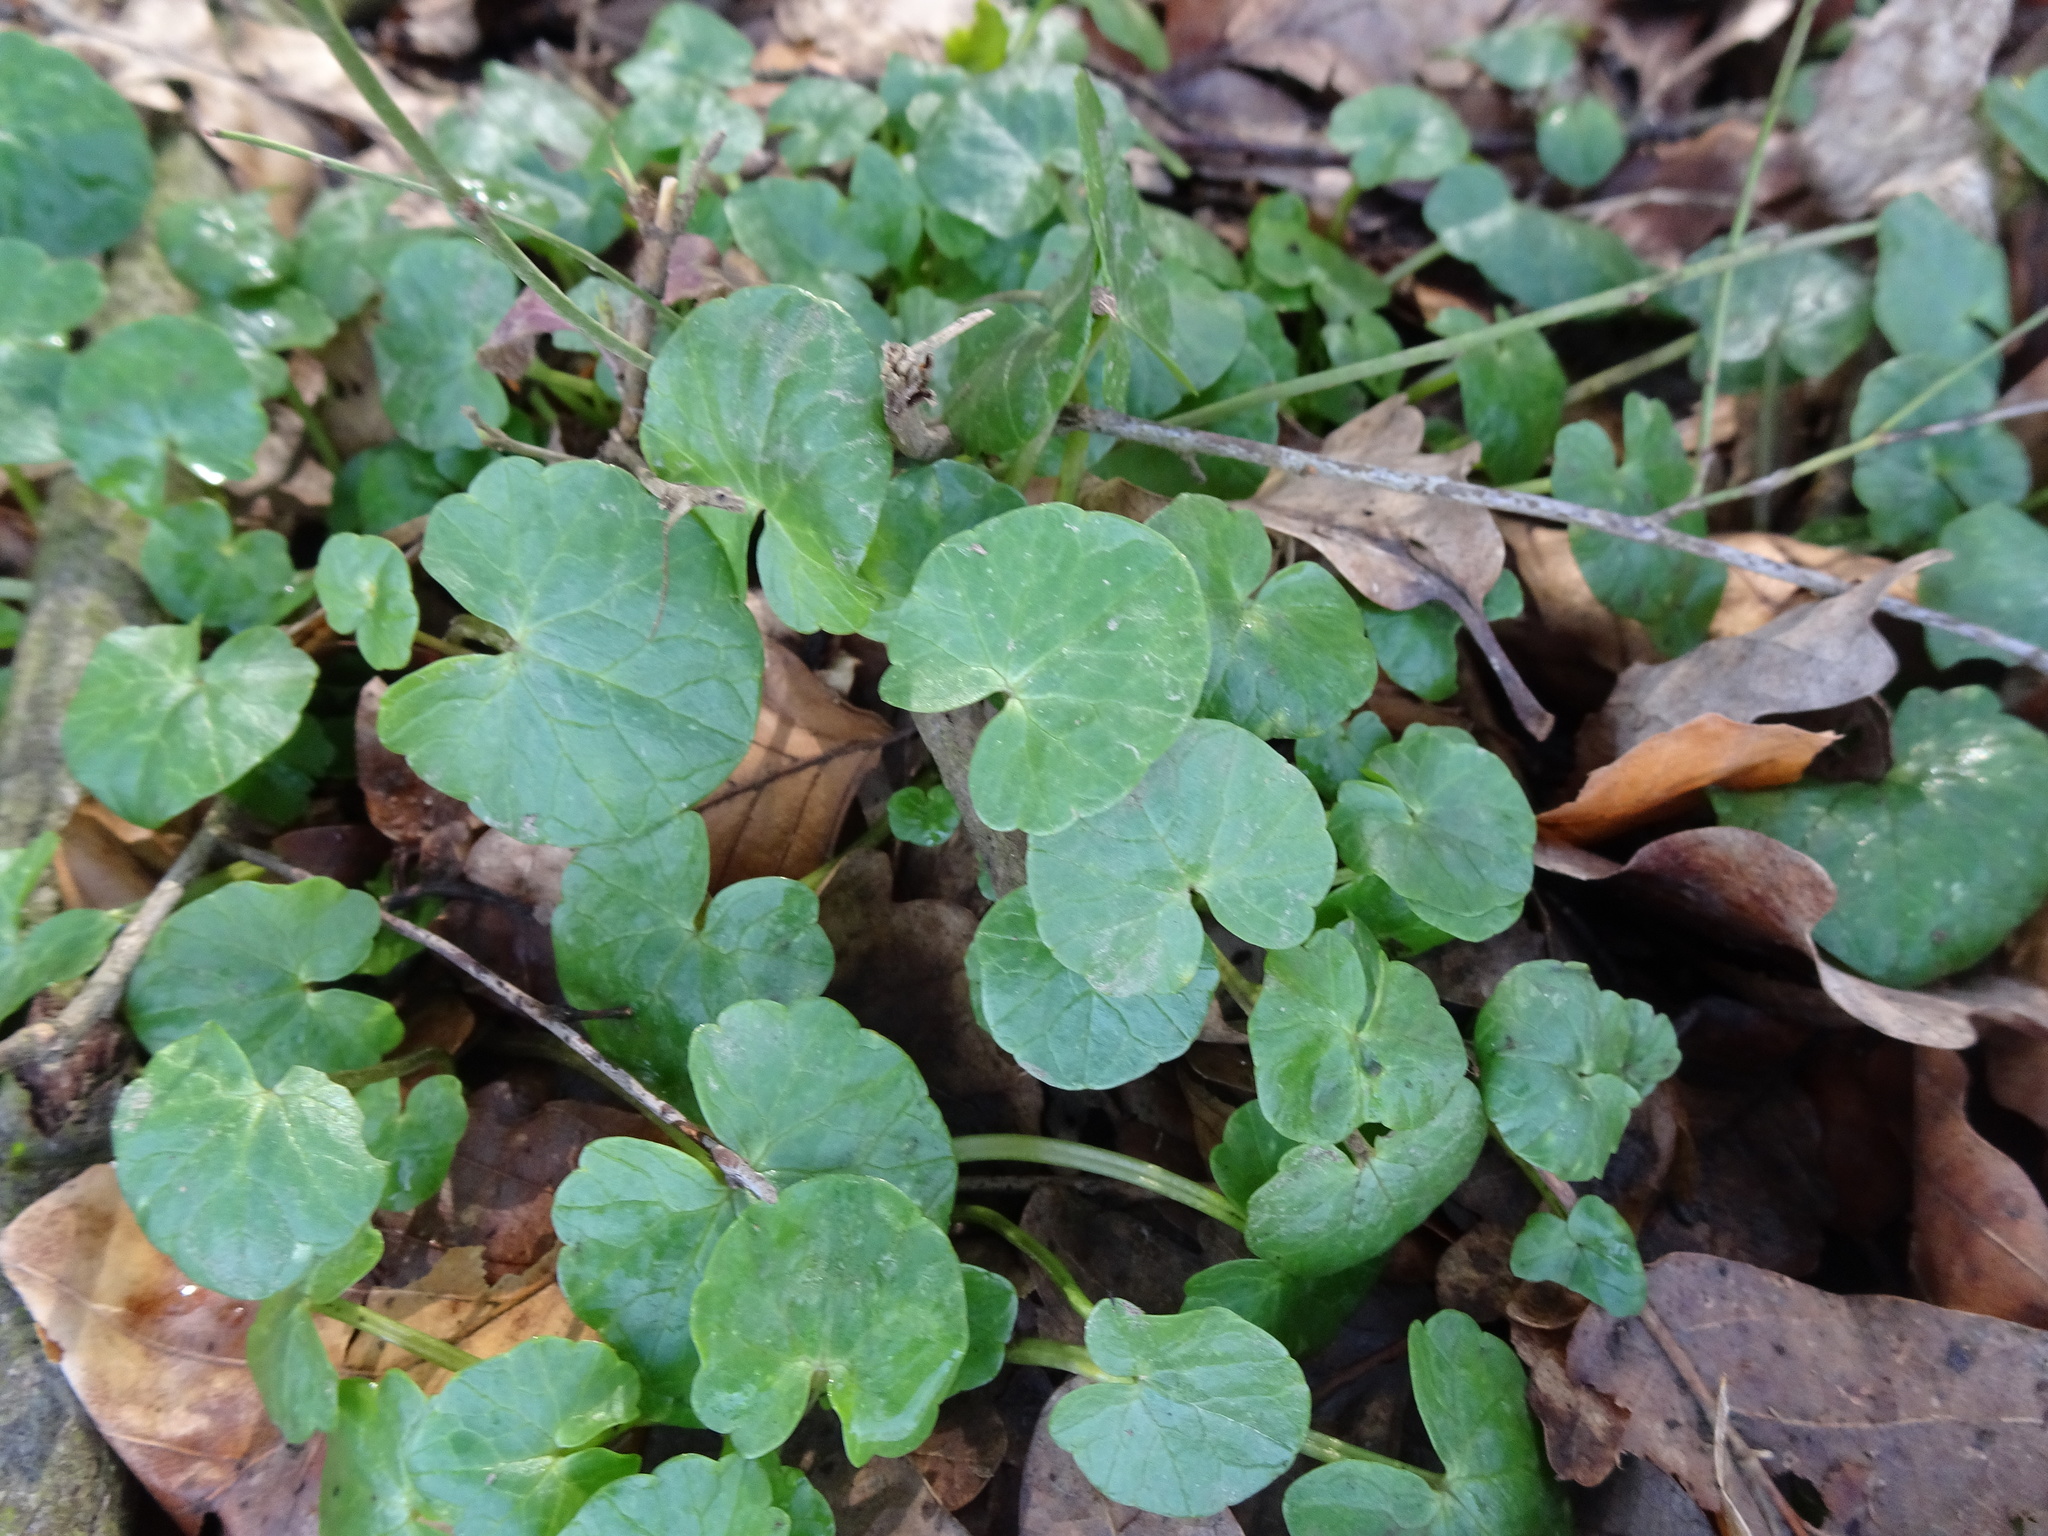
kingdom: Plantae
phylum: Tracheophyta
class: Magnoliopsida
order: Ranunculales
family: Ranunculaceae
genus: Ficaria
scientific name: Ficaria verna
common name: Lesser celandine
